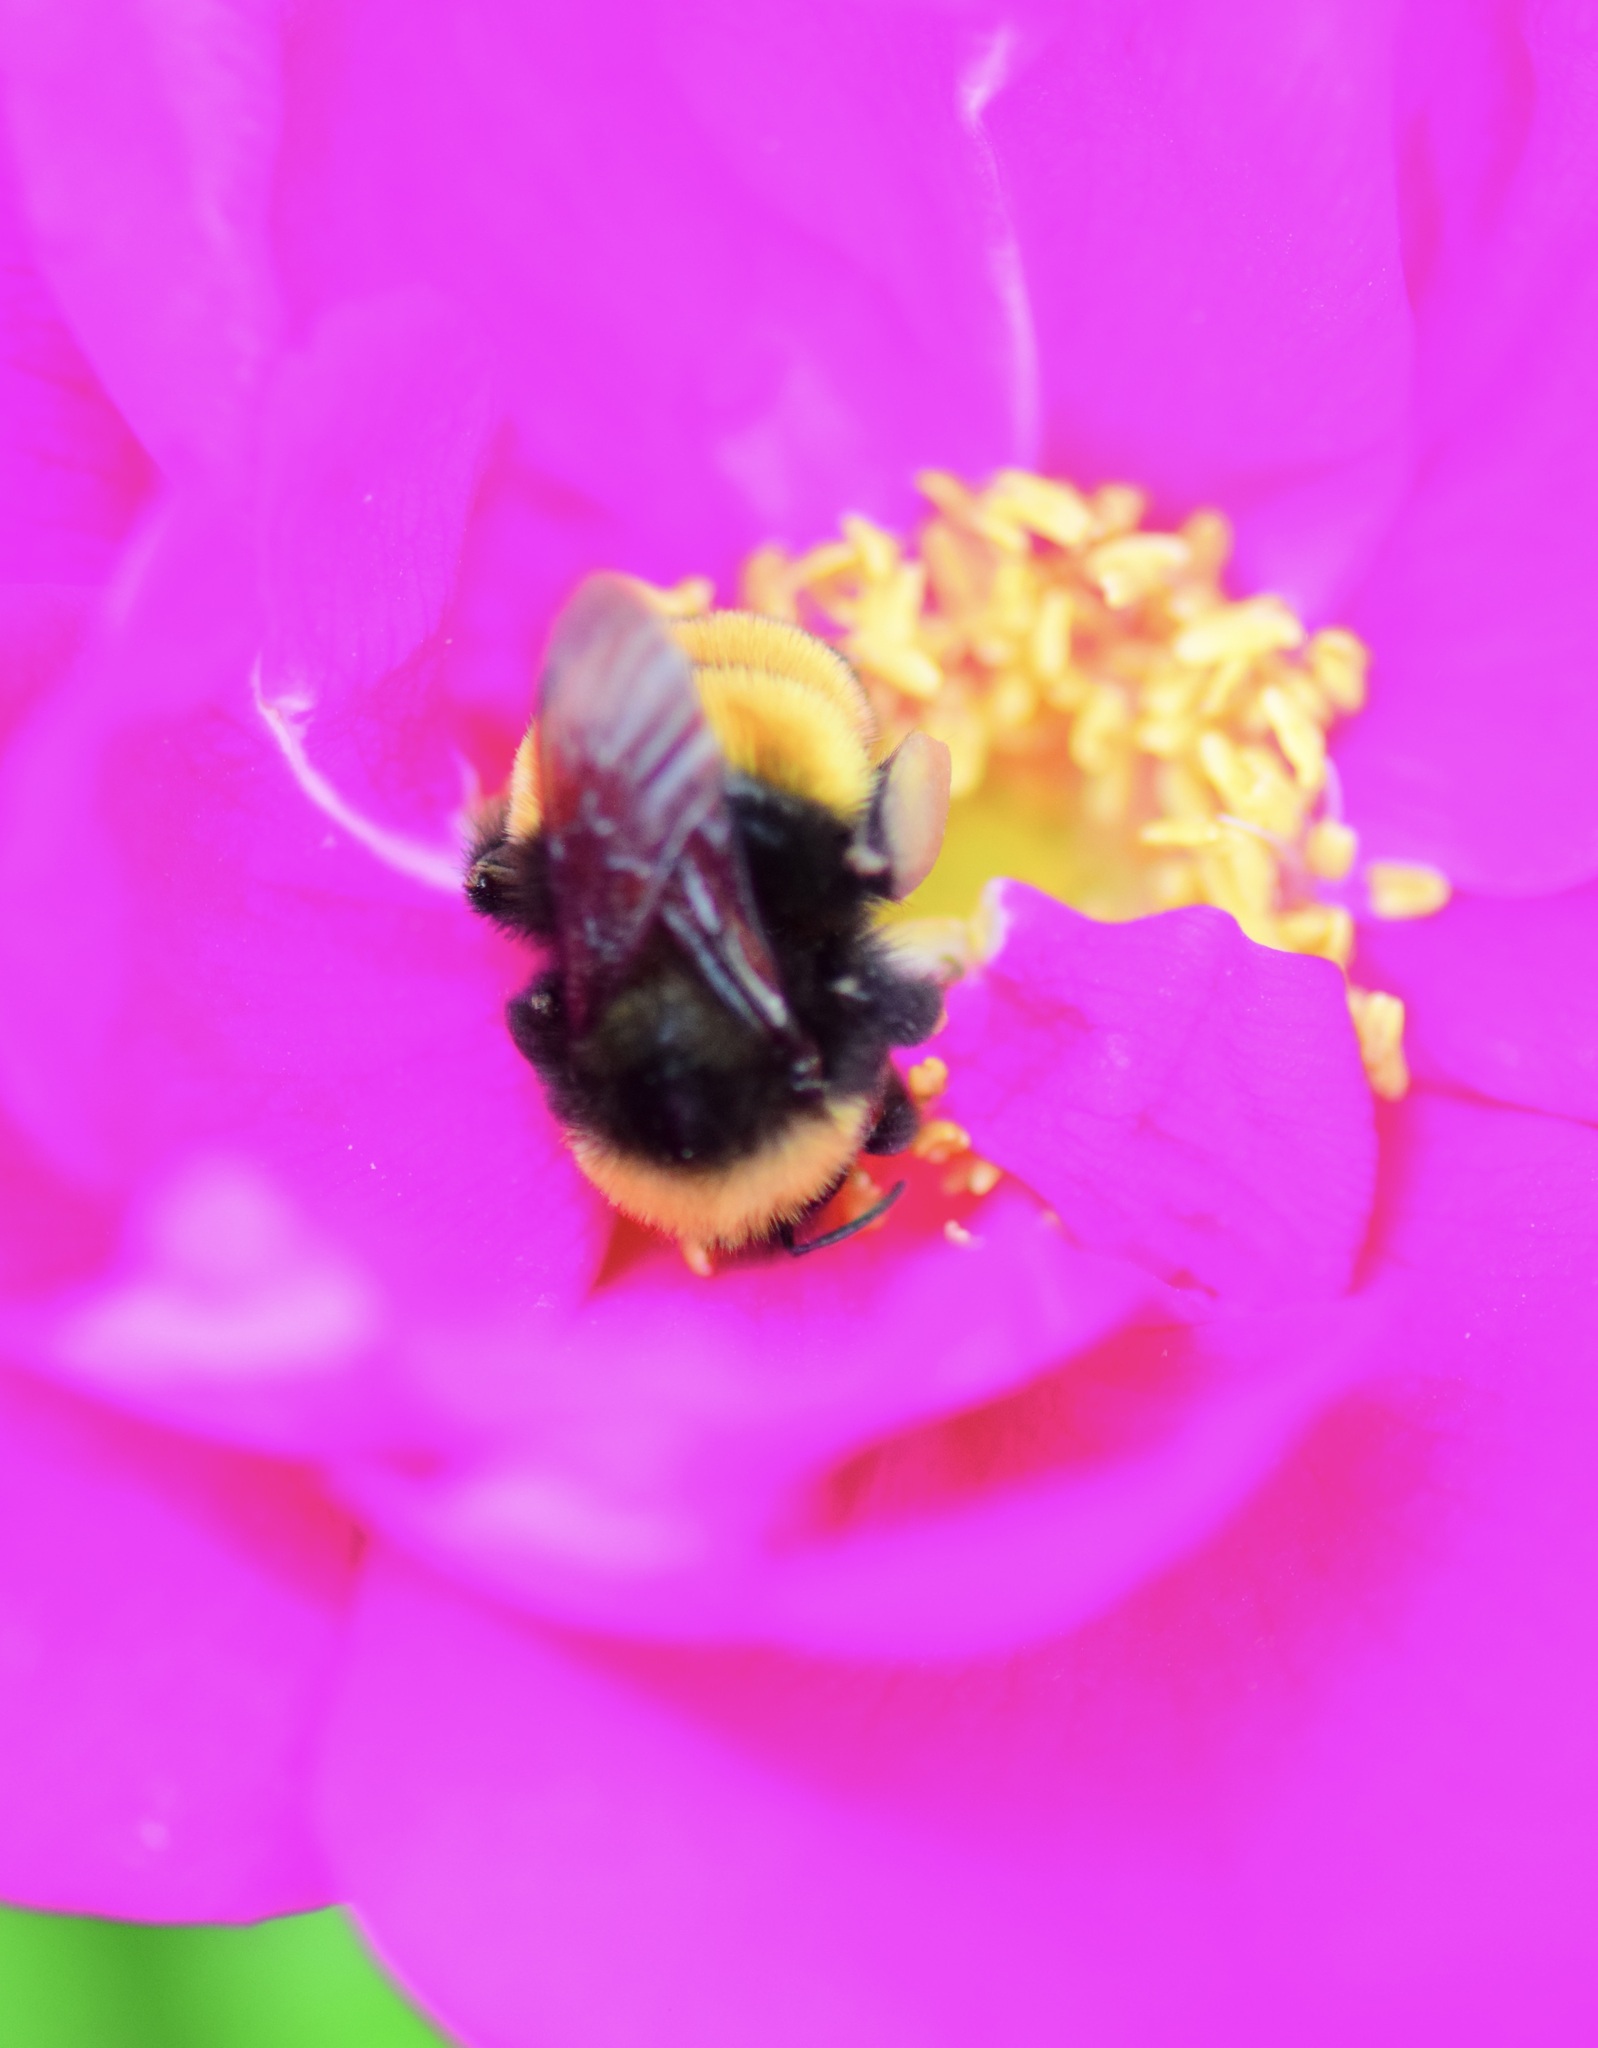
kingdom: Animalia
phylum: Arthropoda
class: Insecta
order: Hymenoptera
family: Apidae
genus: Bombus
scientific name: Bombus terricola
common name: Yellow-banded bumble bee
